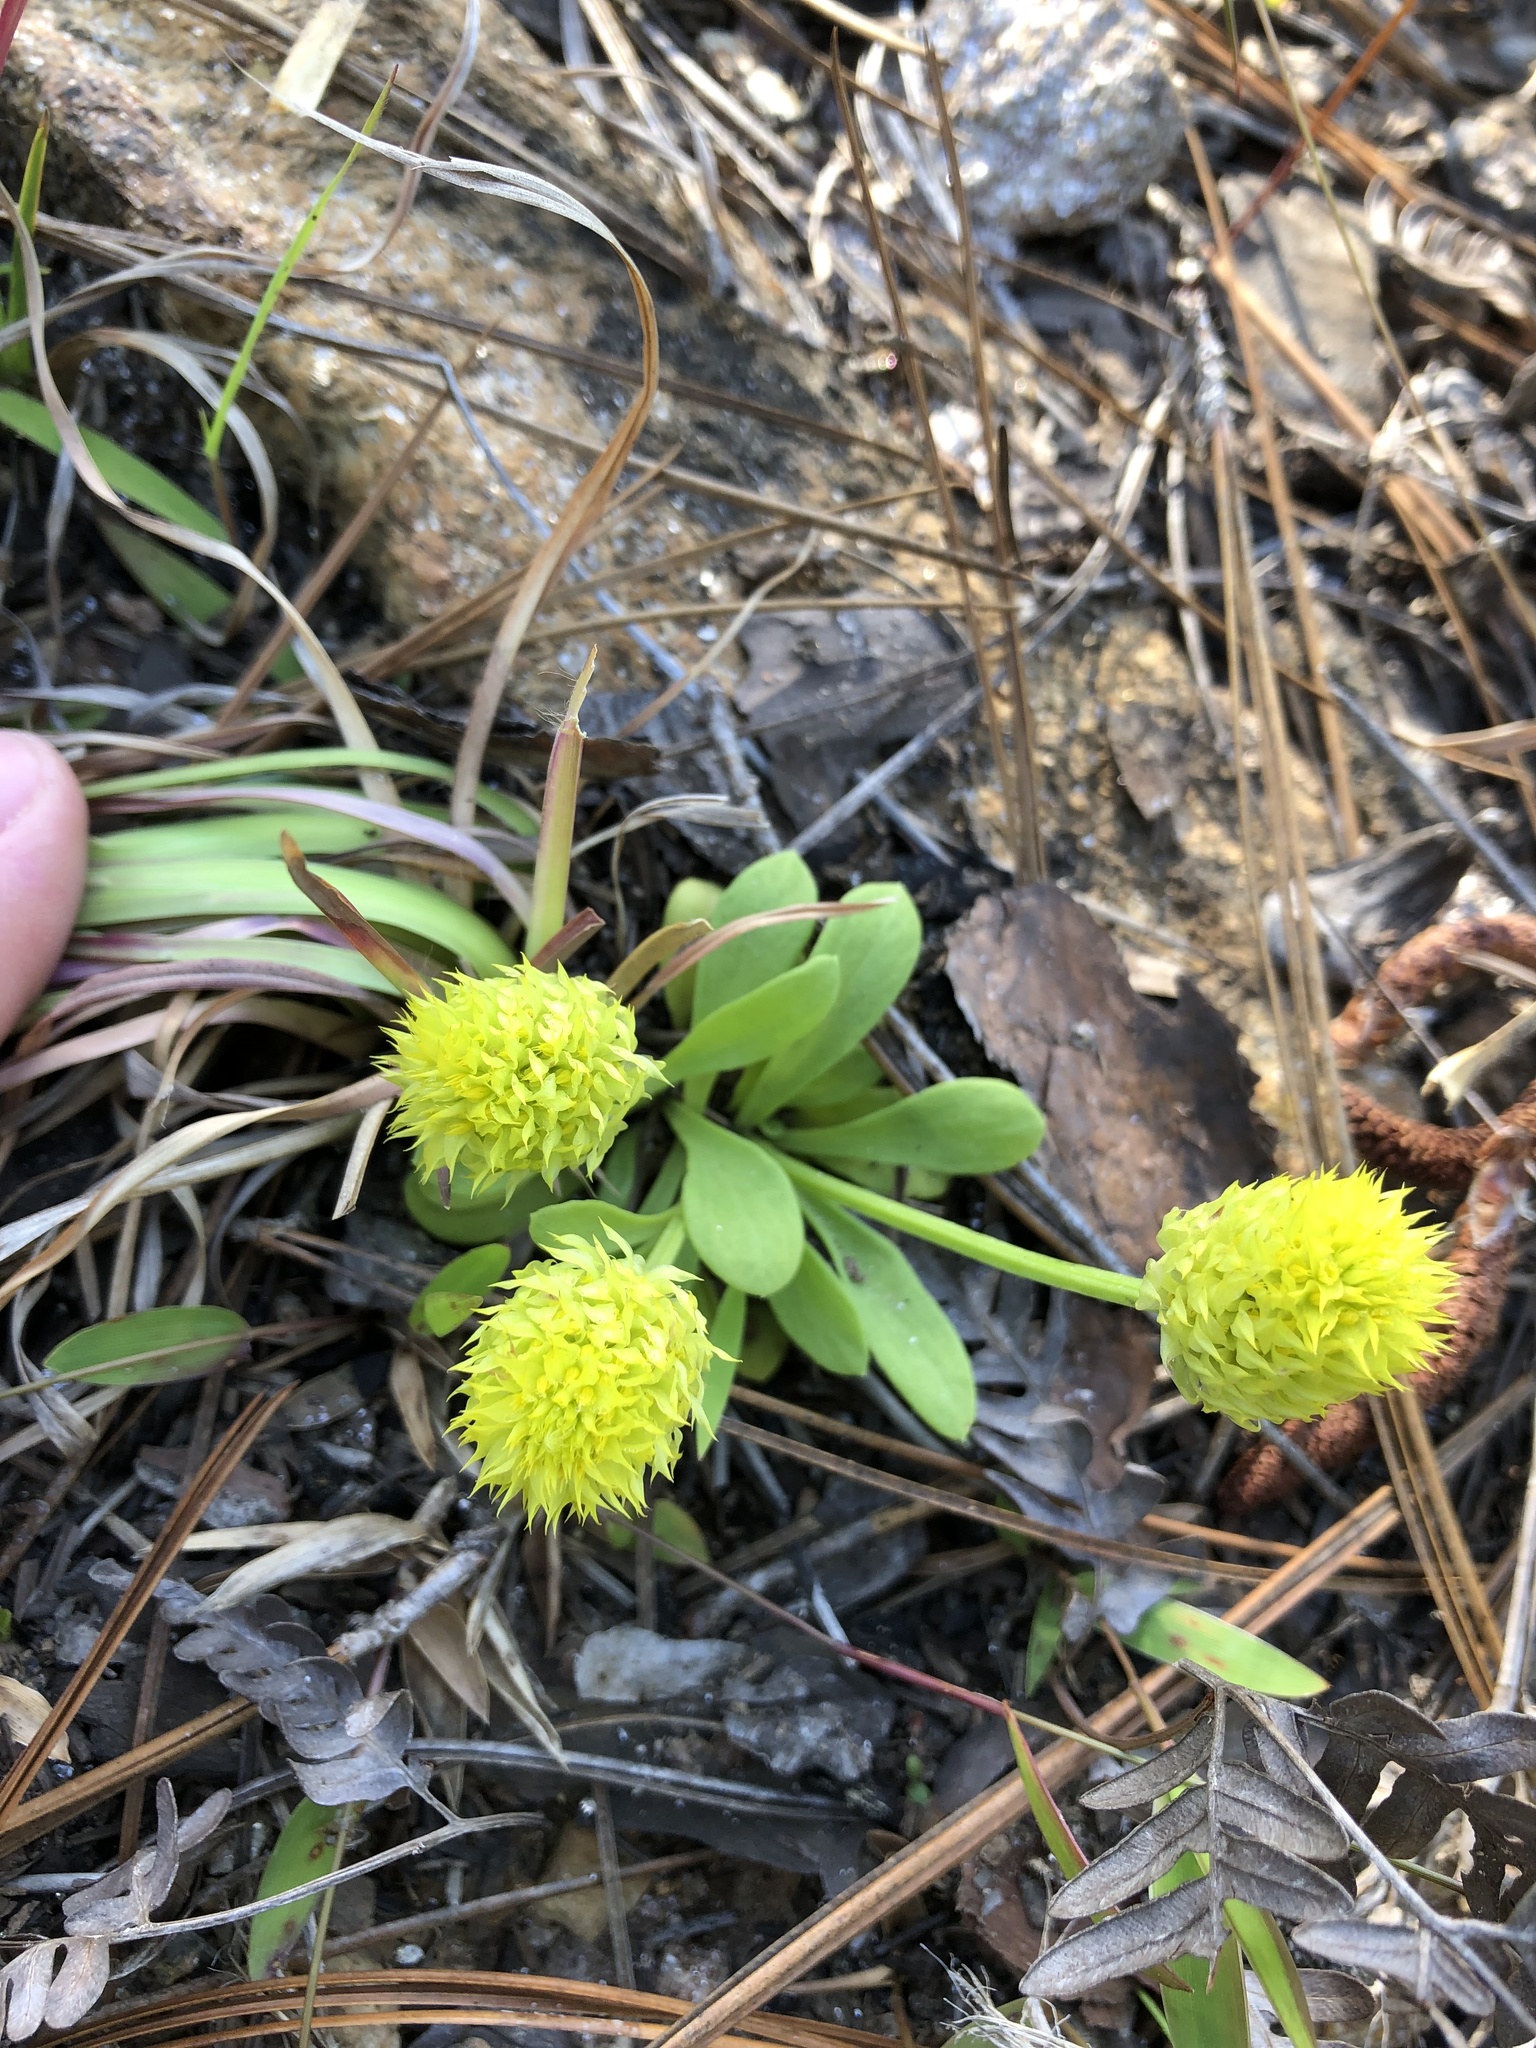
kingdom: Plantae
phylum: Tracheophyta
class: Magnoliopsida
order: Fabales
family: Polygalaceae
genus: Polygala
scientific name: Polygala nana
